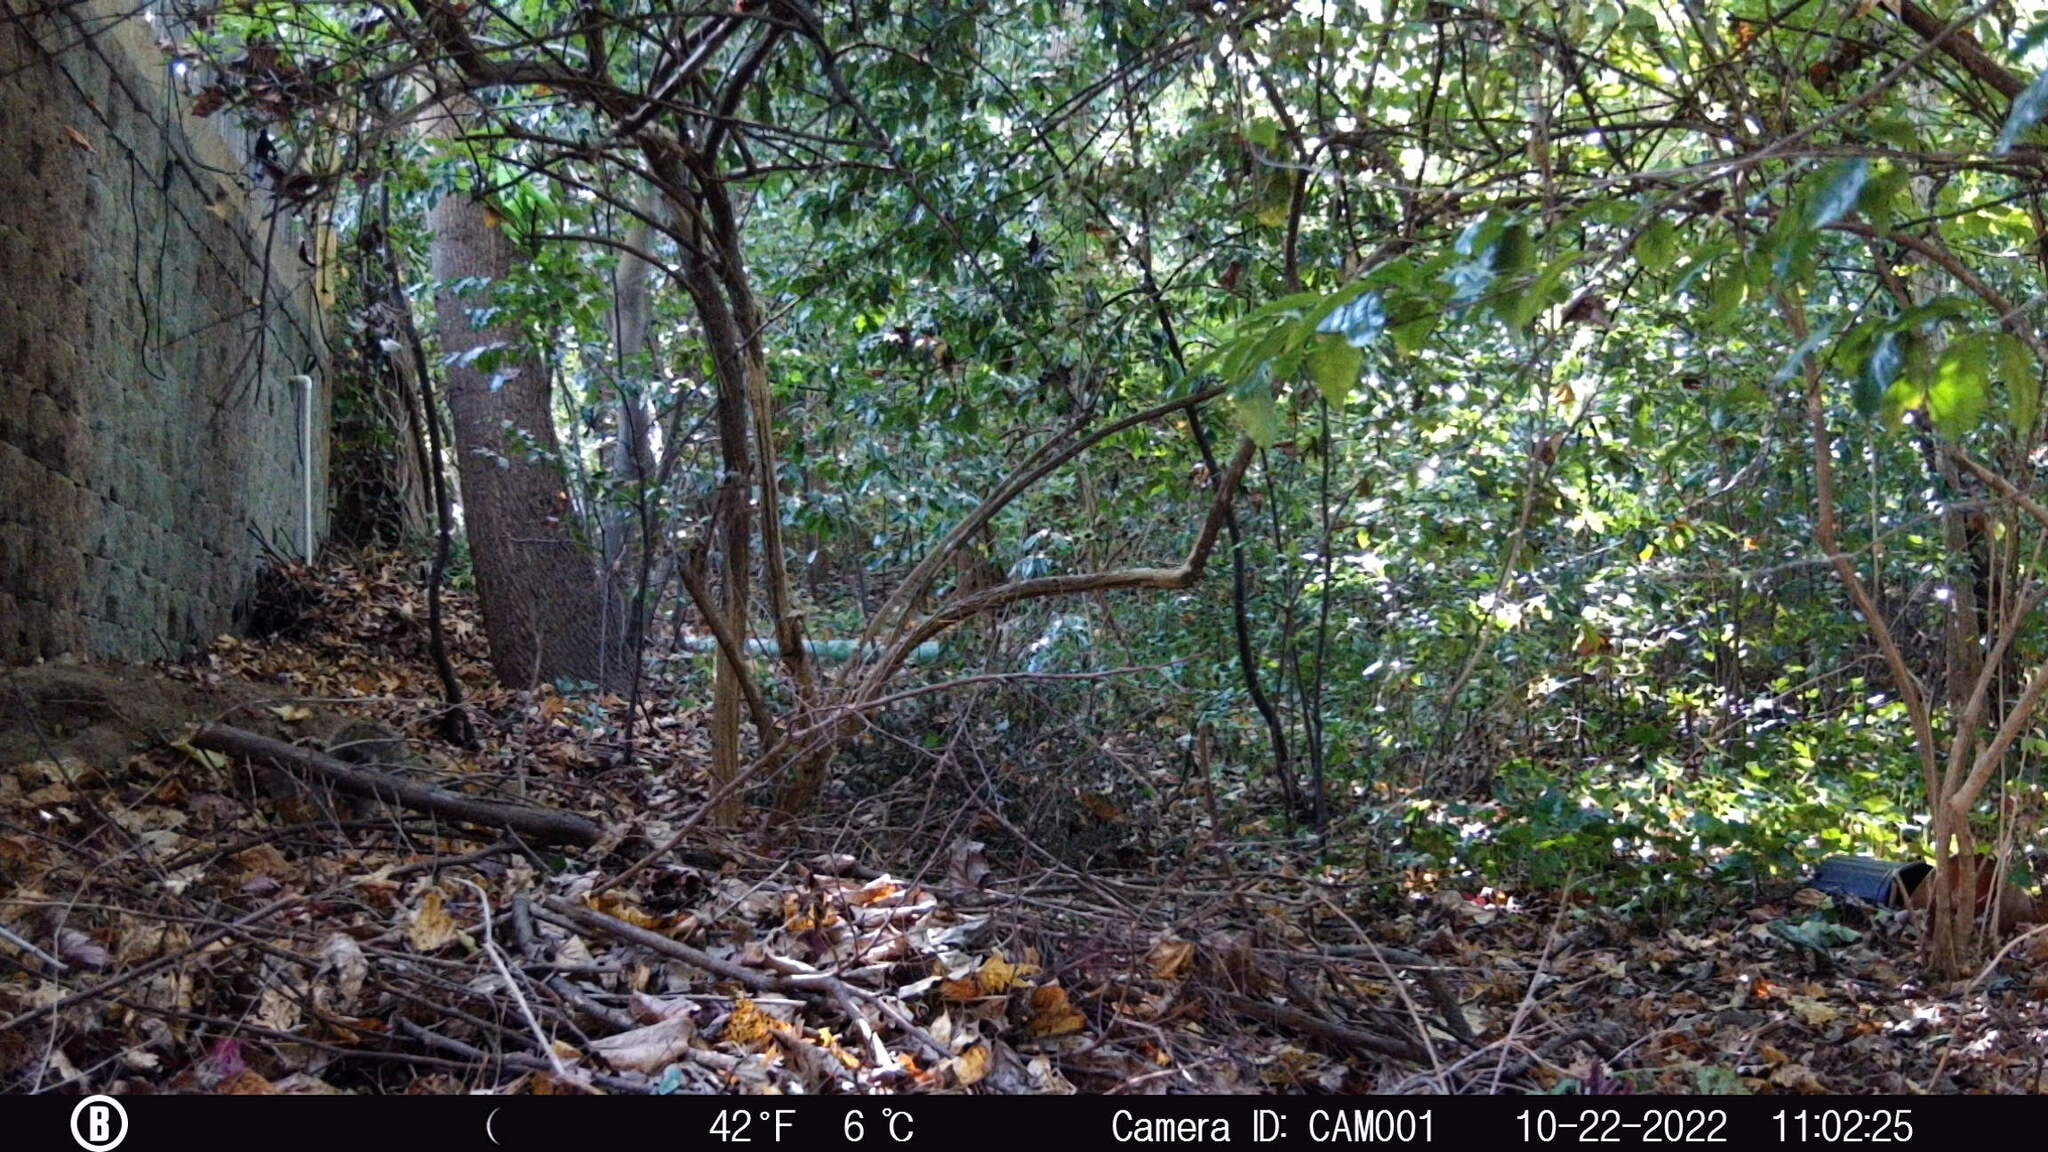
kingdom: Animalia
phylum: Chordata
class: Mammalia
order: Rodentia
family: Sciuridae
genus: Sciurus
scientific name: Sciurus carolinensis
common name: Eastern gray squirrel
